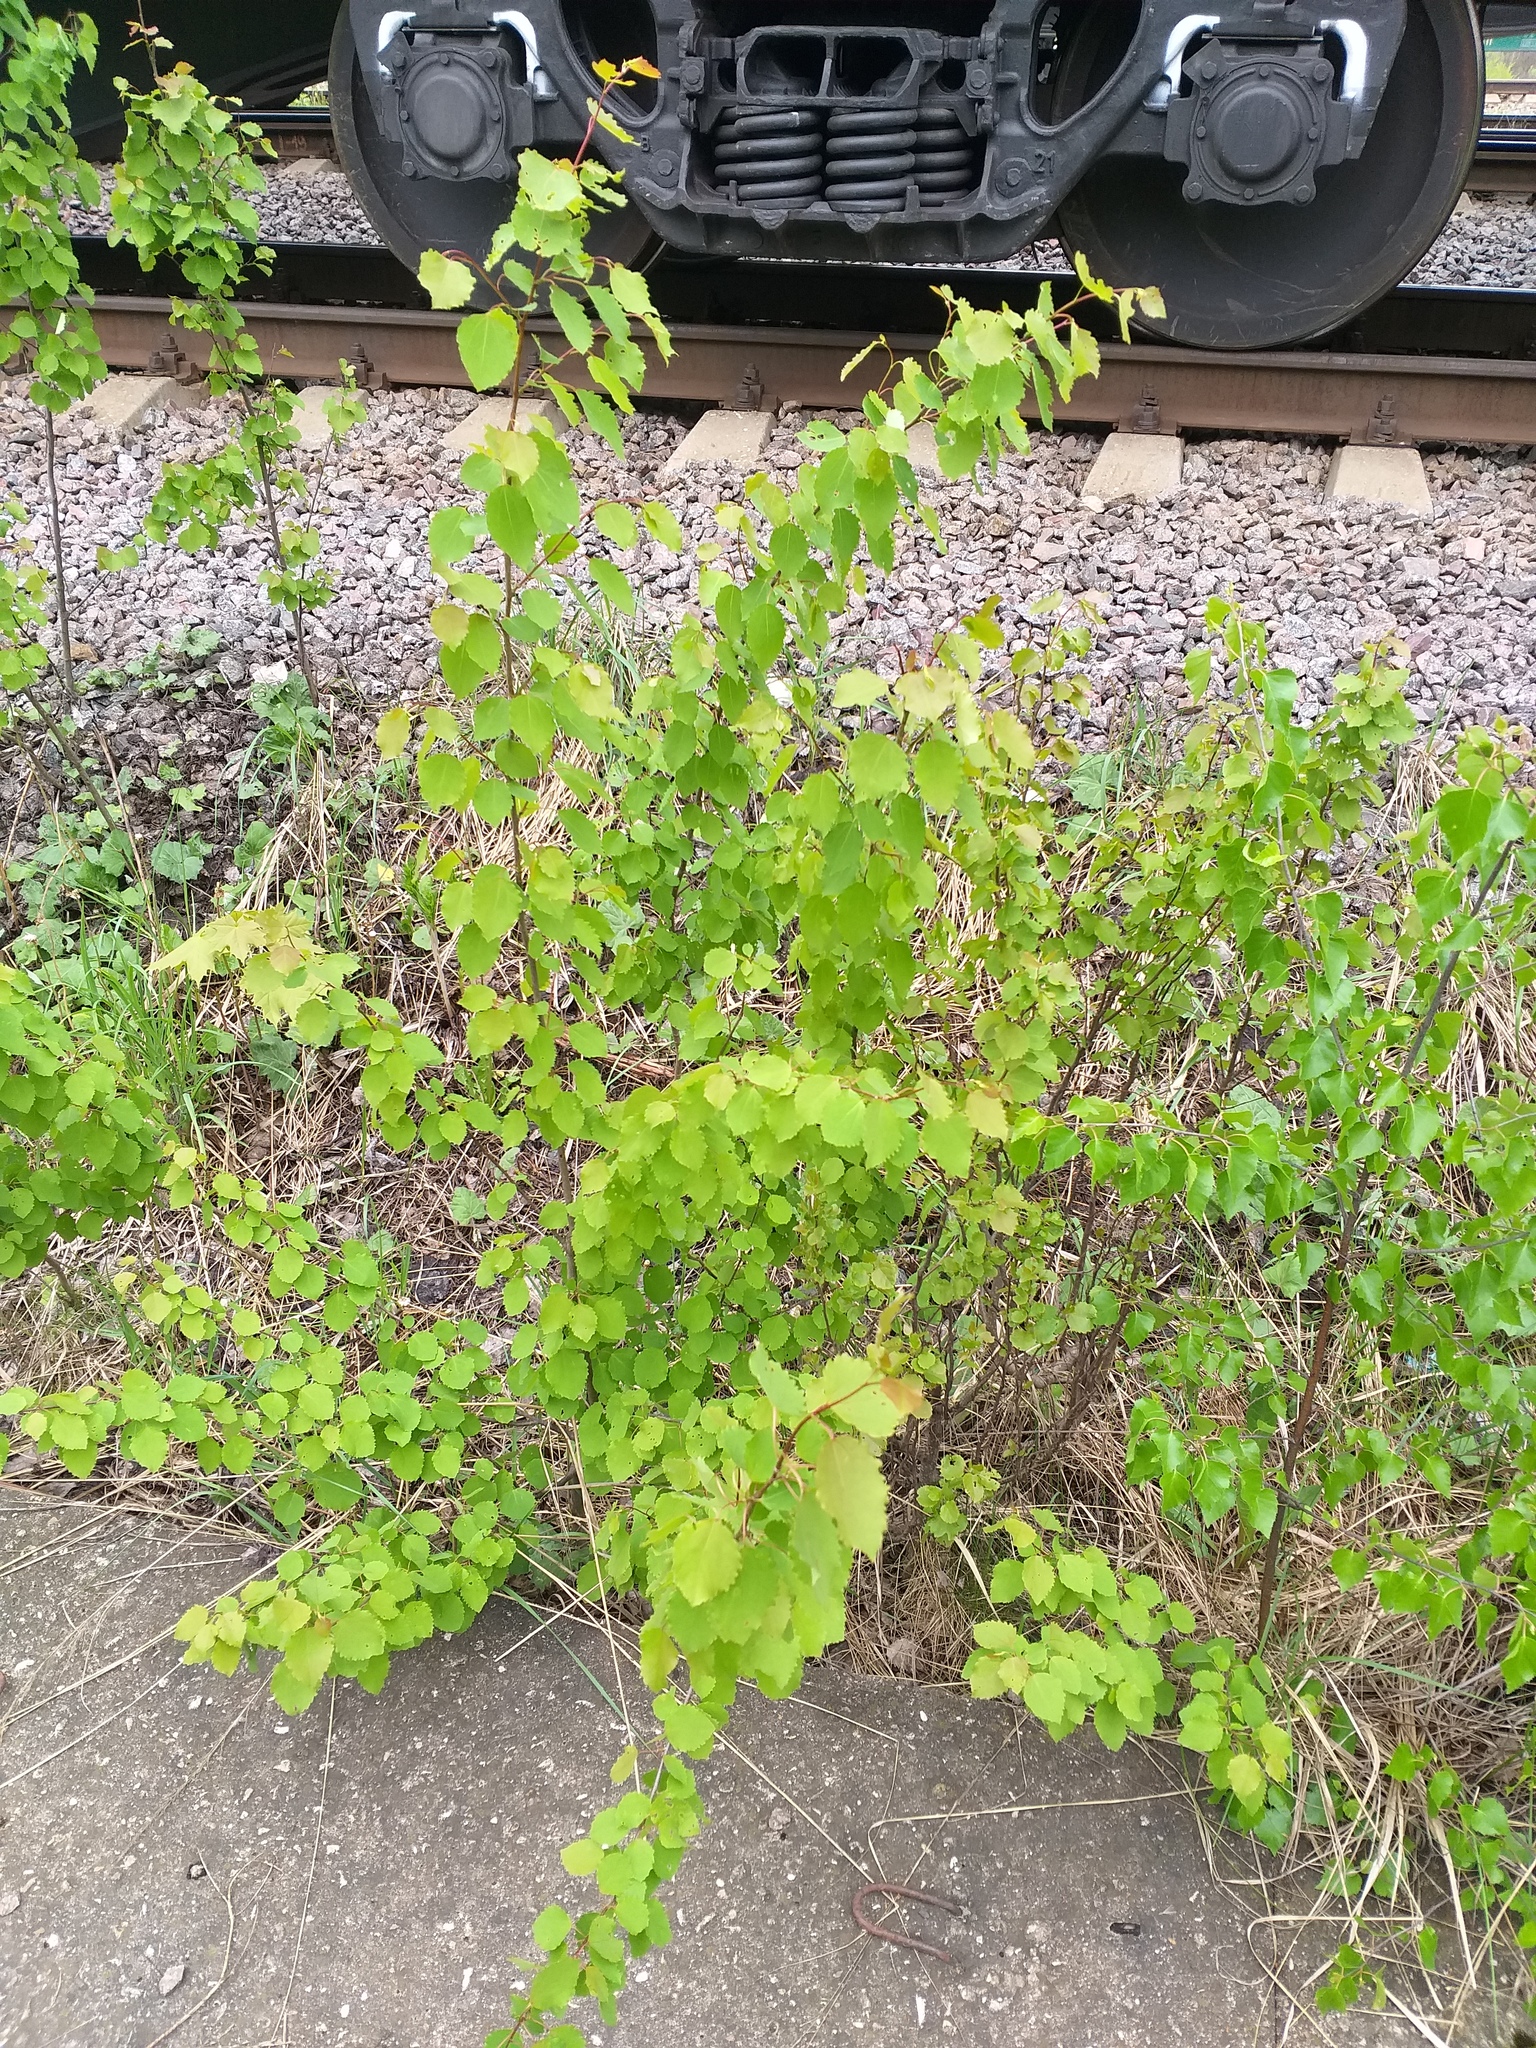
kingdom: Plantae
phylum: Tracheophyta
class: Magnoliopsida
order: Malpighiales
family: Salicaceae
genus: Populus
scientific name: Populus tremula
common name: European aspen
